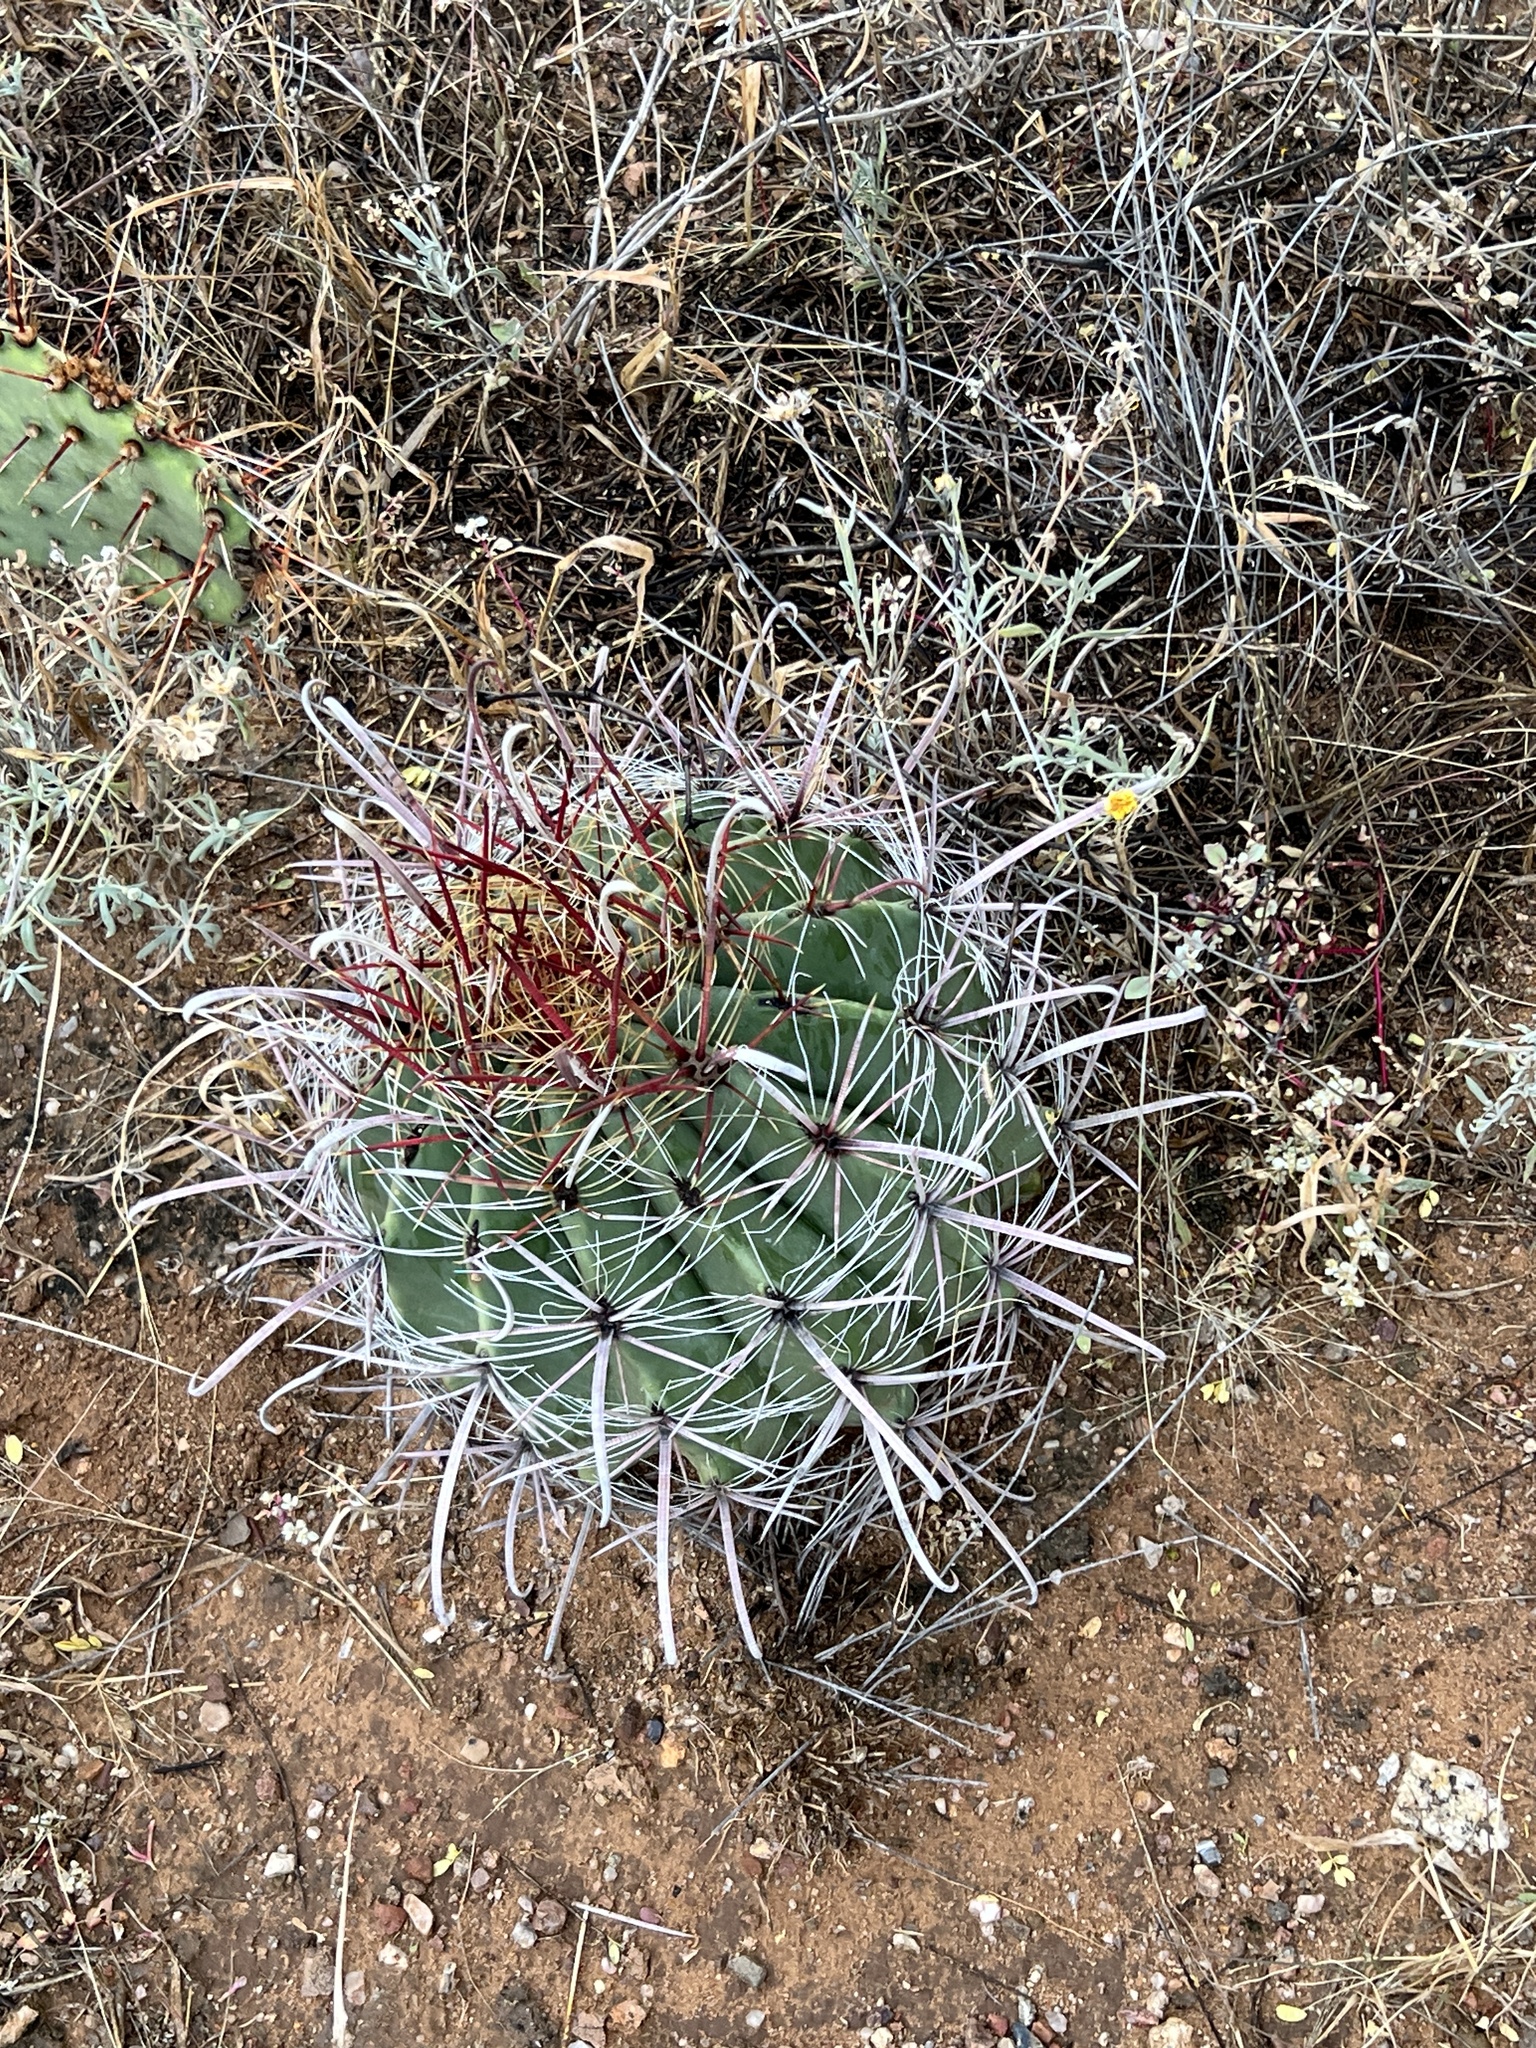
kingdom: Plantae
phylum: Tracheophyta
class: Magnoliopsida
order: Caryophyllales
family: Cactaceae
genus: Ferocactus
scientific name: Ferocactus wislizeni
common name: Candy barrel cactus
